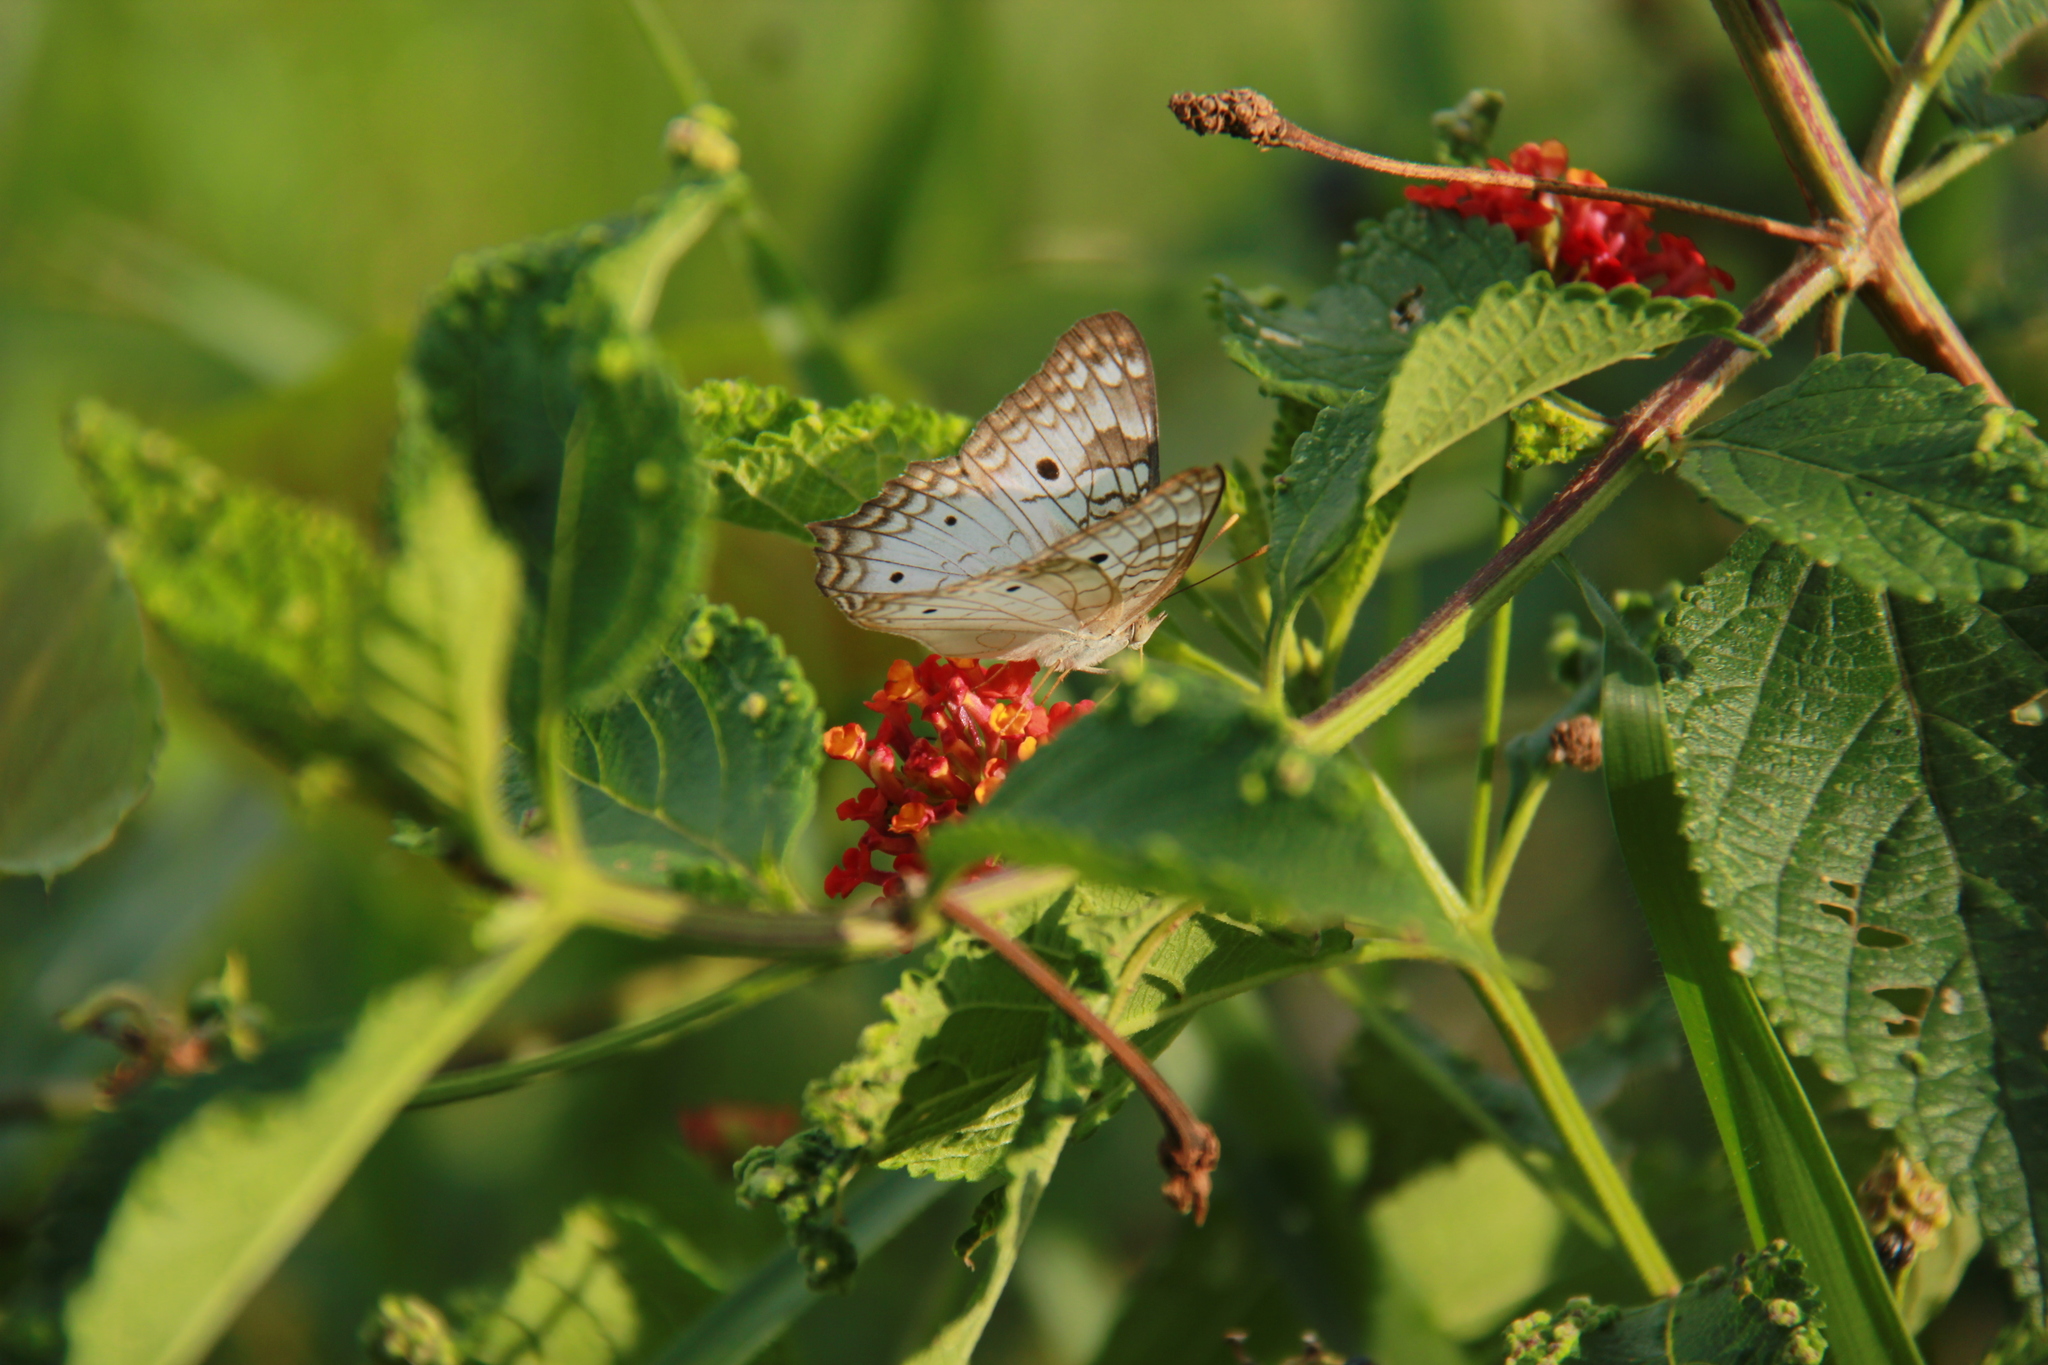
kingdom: Animalia
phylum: Arthropoda
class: Insecta
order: Lepidoptera
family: Nymphalidae
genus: Anartia
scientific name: Anartia jatrophae
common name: White peacock
